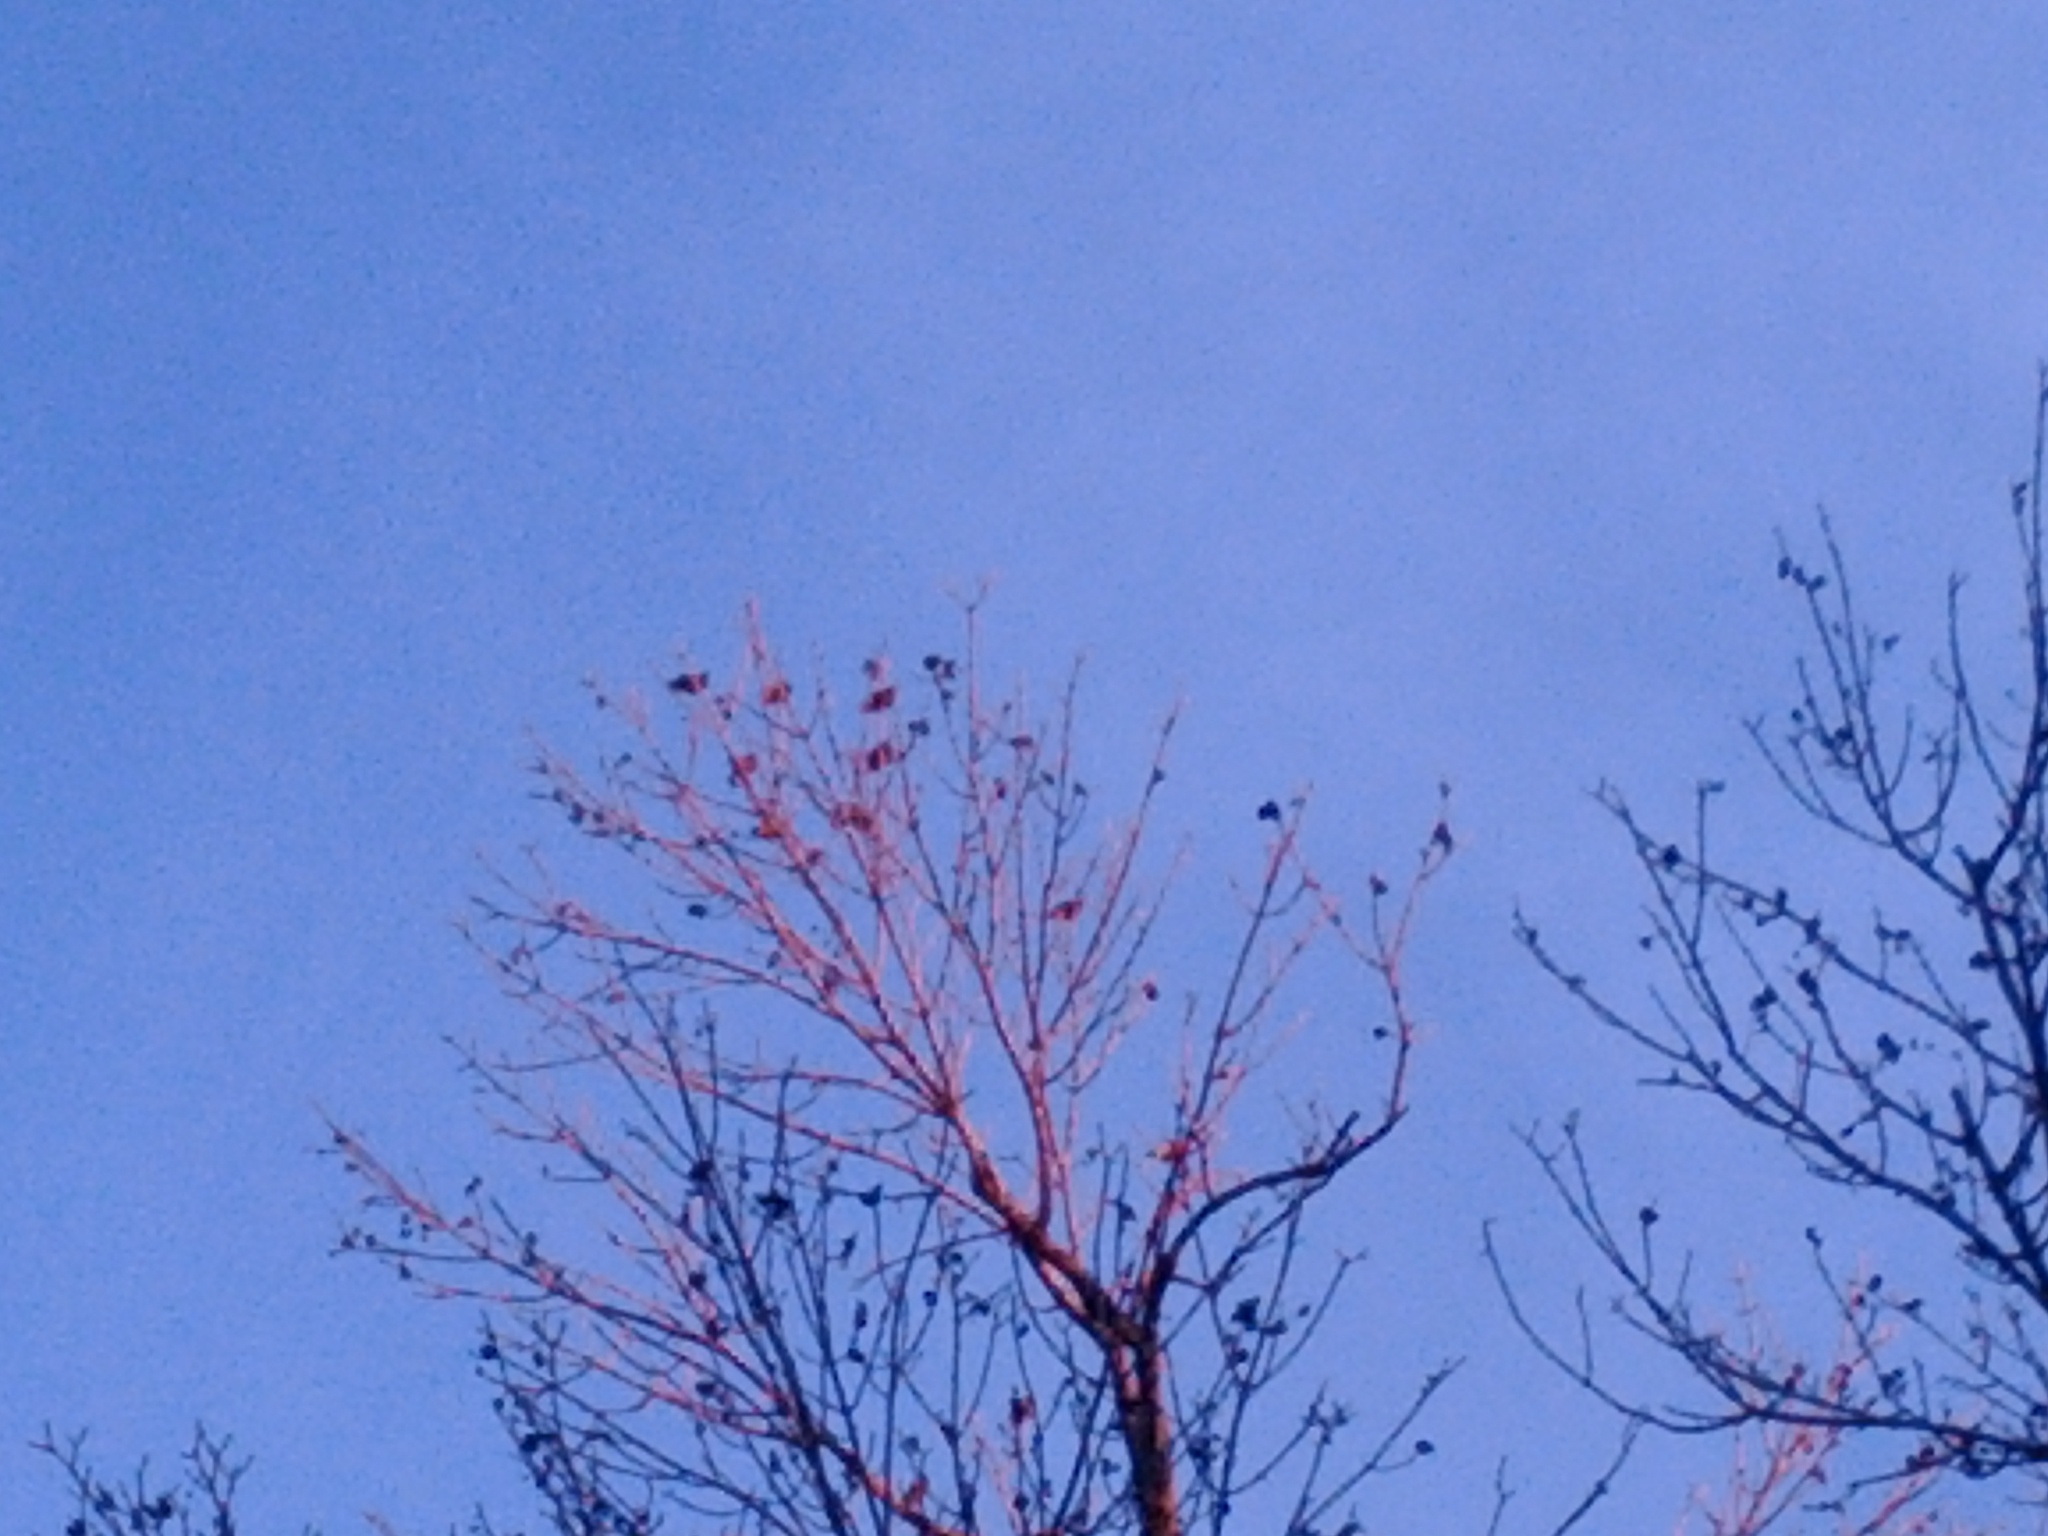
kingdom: Animalia
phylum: Chordata
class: Aves
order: Passeriformes
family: Sturnidae
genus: Sturnus
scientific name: Sturnus vulgaris
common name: Common starling
